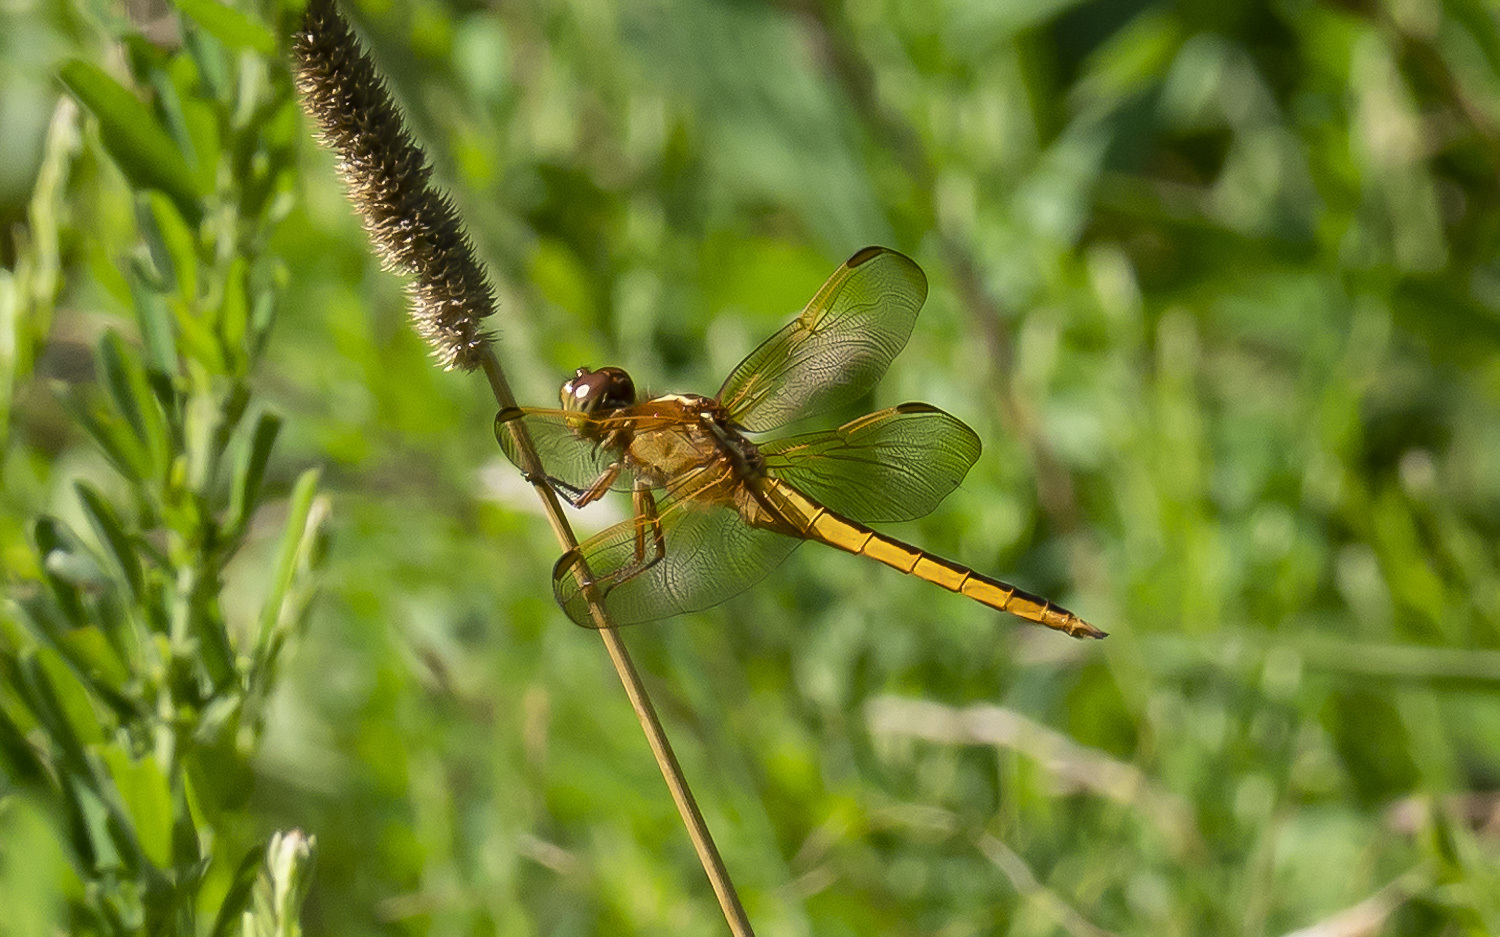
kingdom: Animalia
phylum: Arthropoda
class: Insecta
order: Odonata
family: Libellulidae
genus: Libellula
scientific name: Libellula needhami
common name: Needham's skimmer
